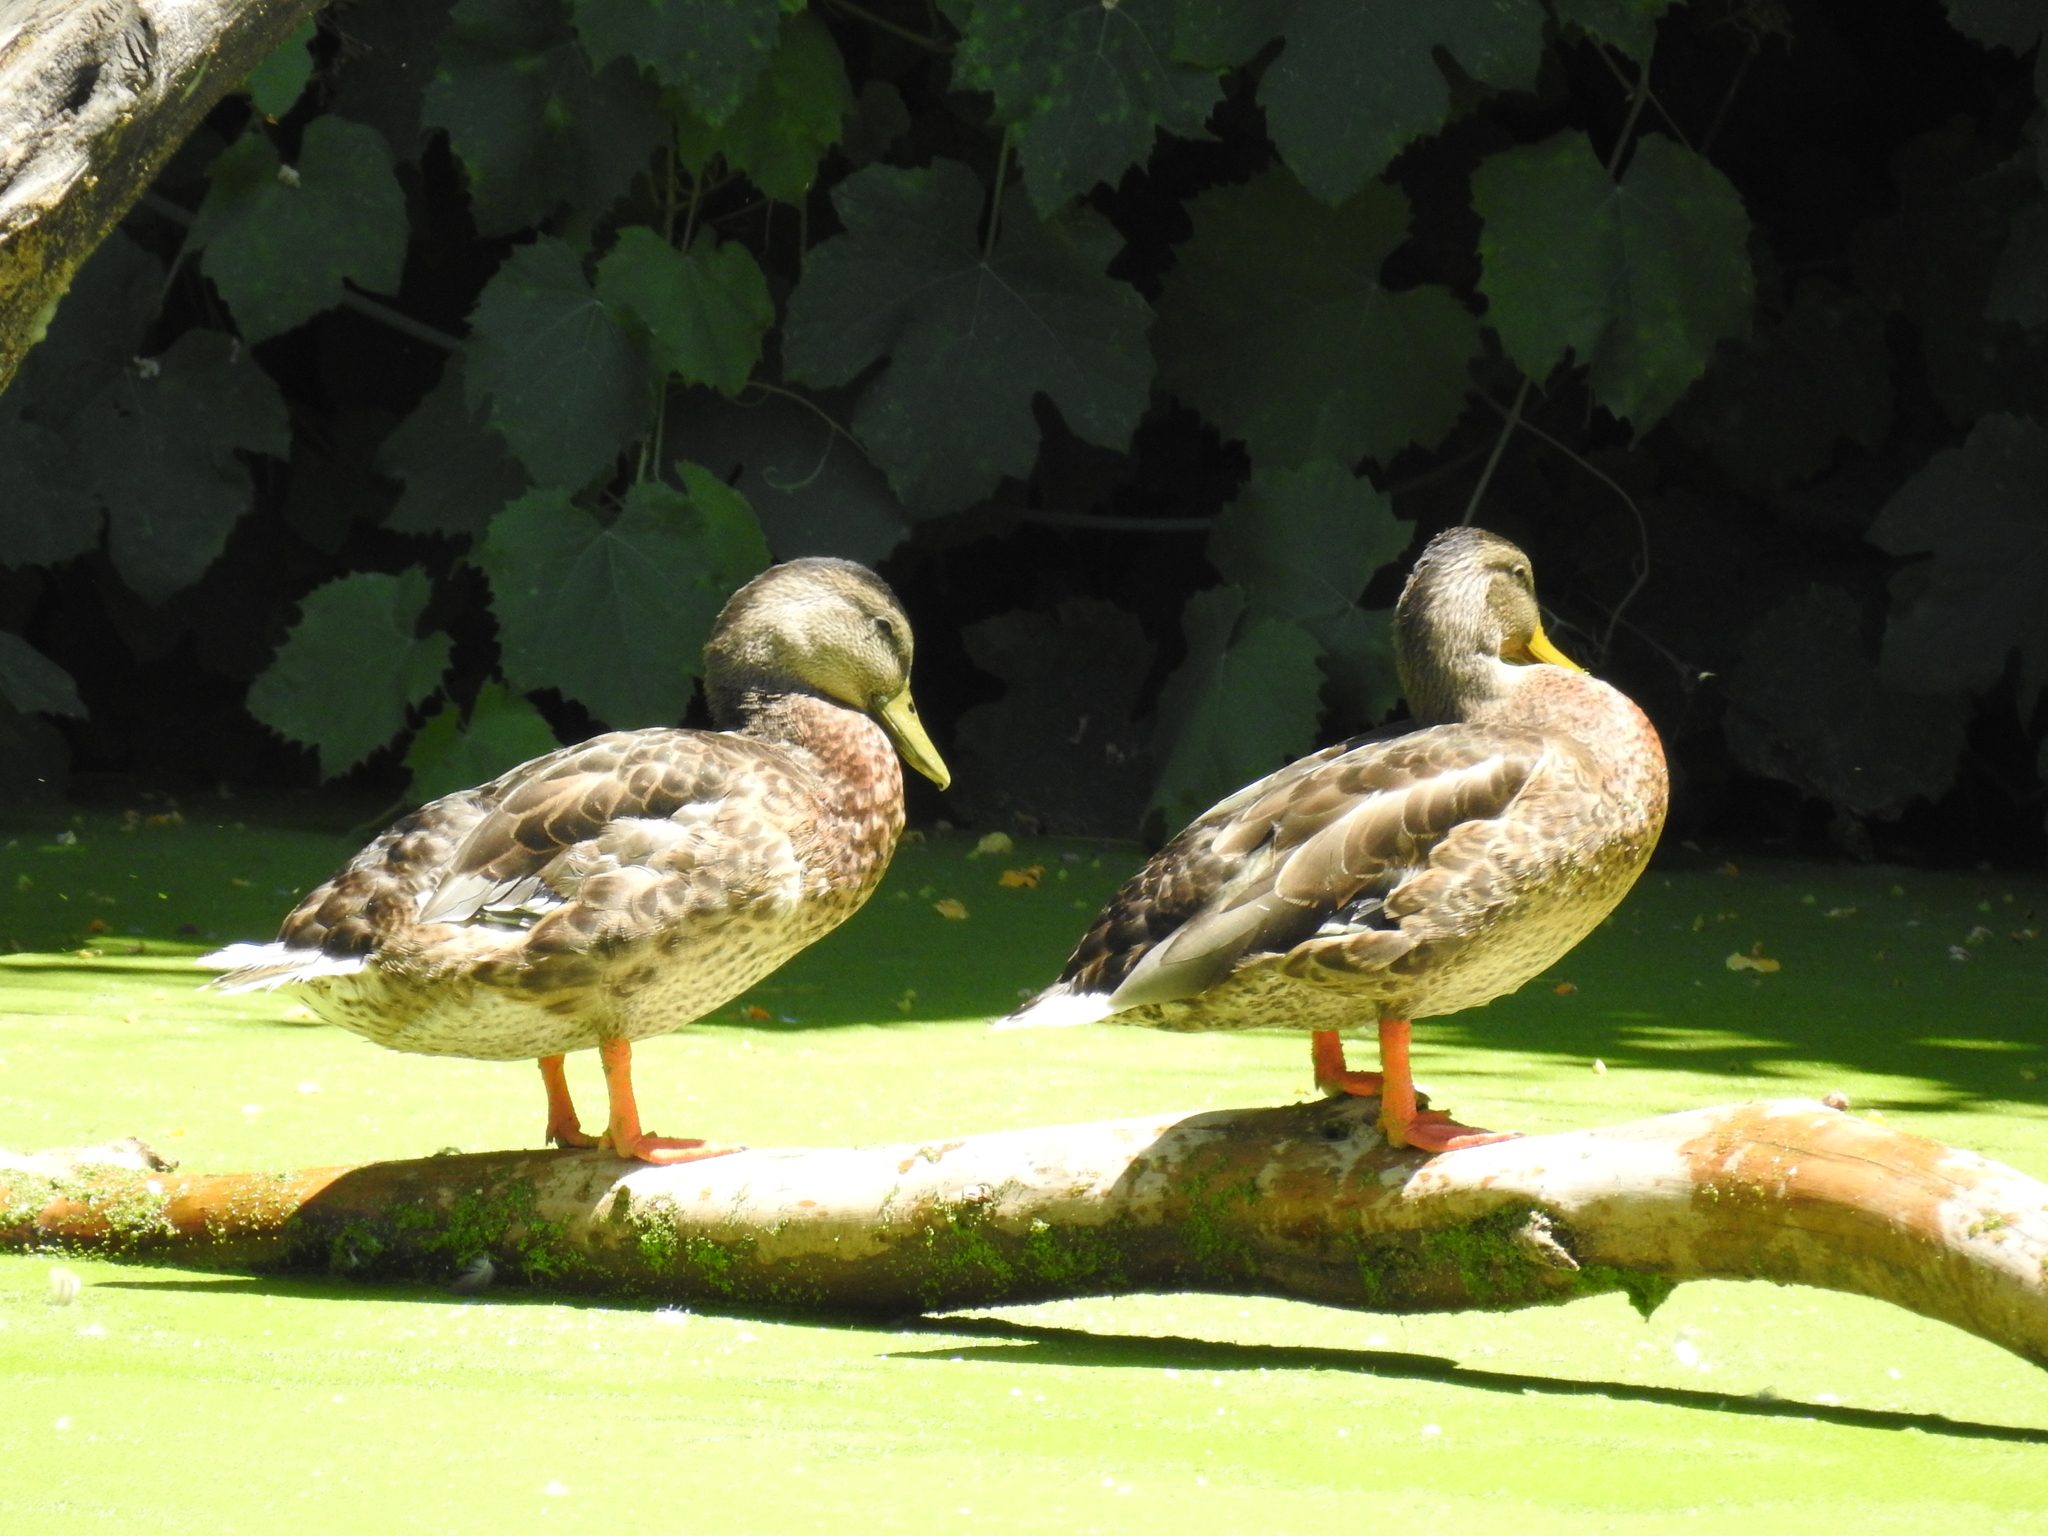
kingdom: Animalia
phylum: Chordata
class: Aves
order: Anseriformes
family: Anatidae
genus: Anas
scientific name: Anas platyrhynchos
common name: Mallard
